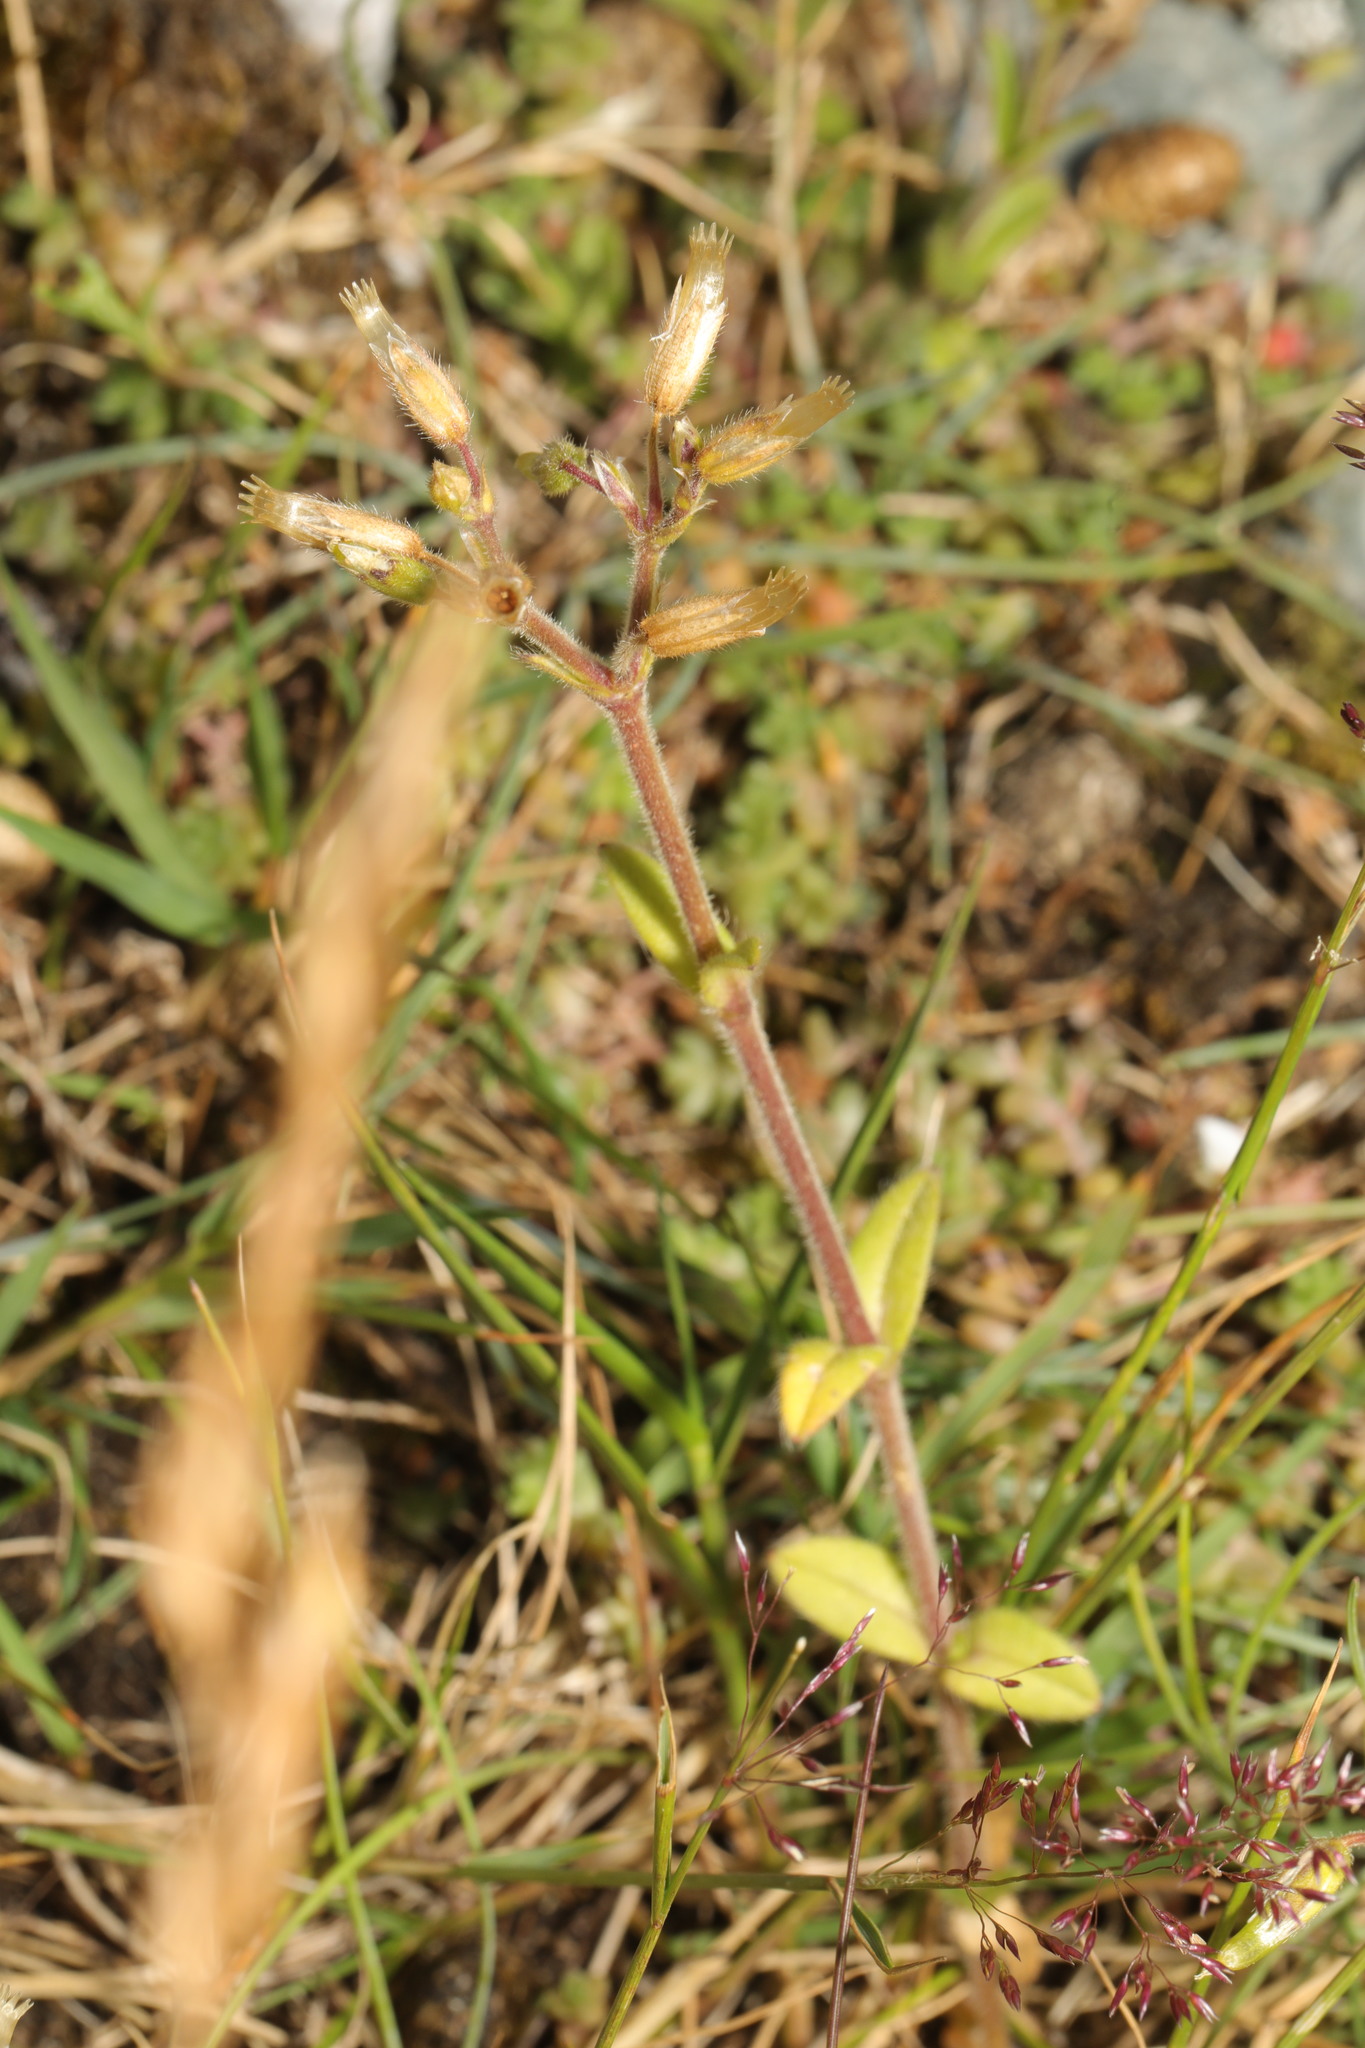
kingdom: Plantae
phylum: Tracheophyta
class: Magnoliopsida
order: Caryophyllales
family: Caryophyllaceae
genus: Cerastium
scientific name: Cerastium glomeratum
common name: Sticky chickweed
